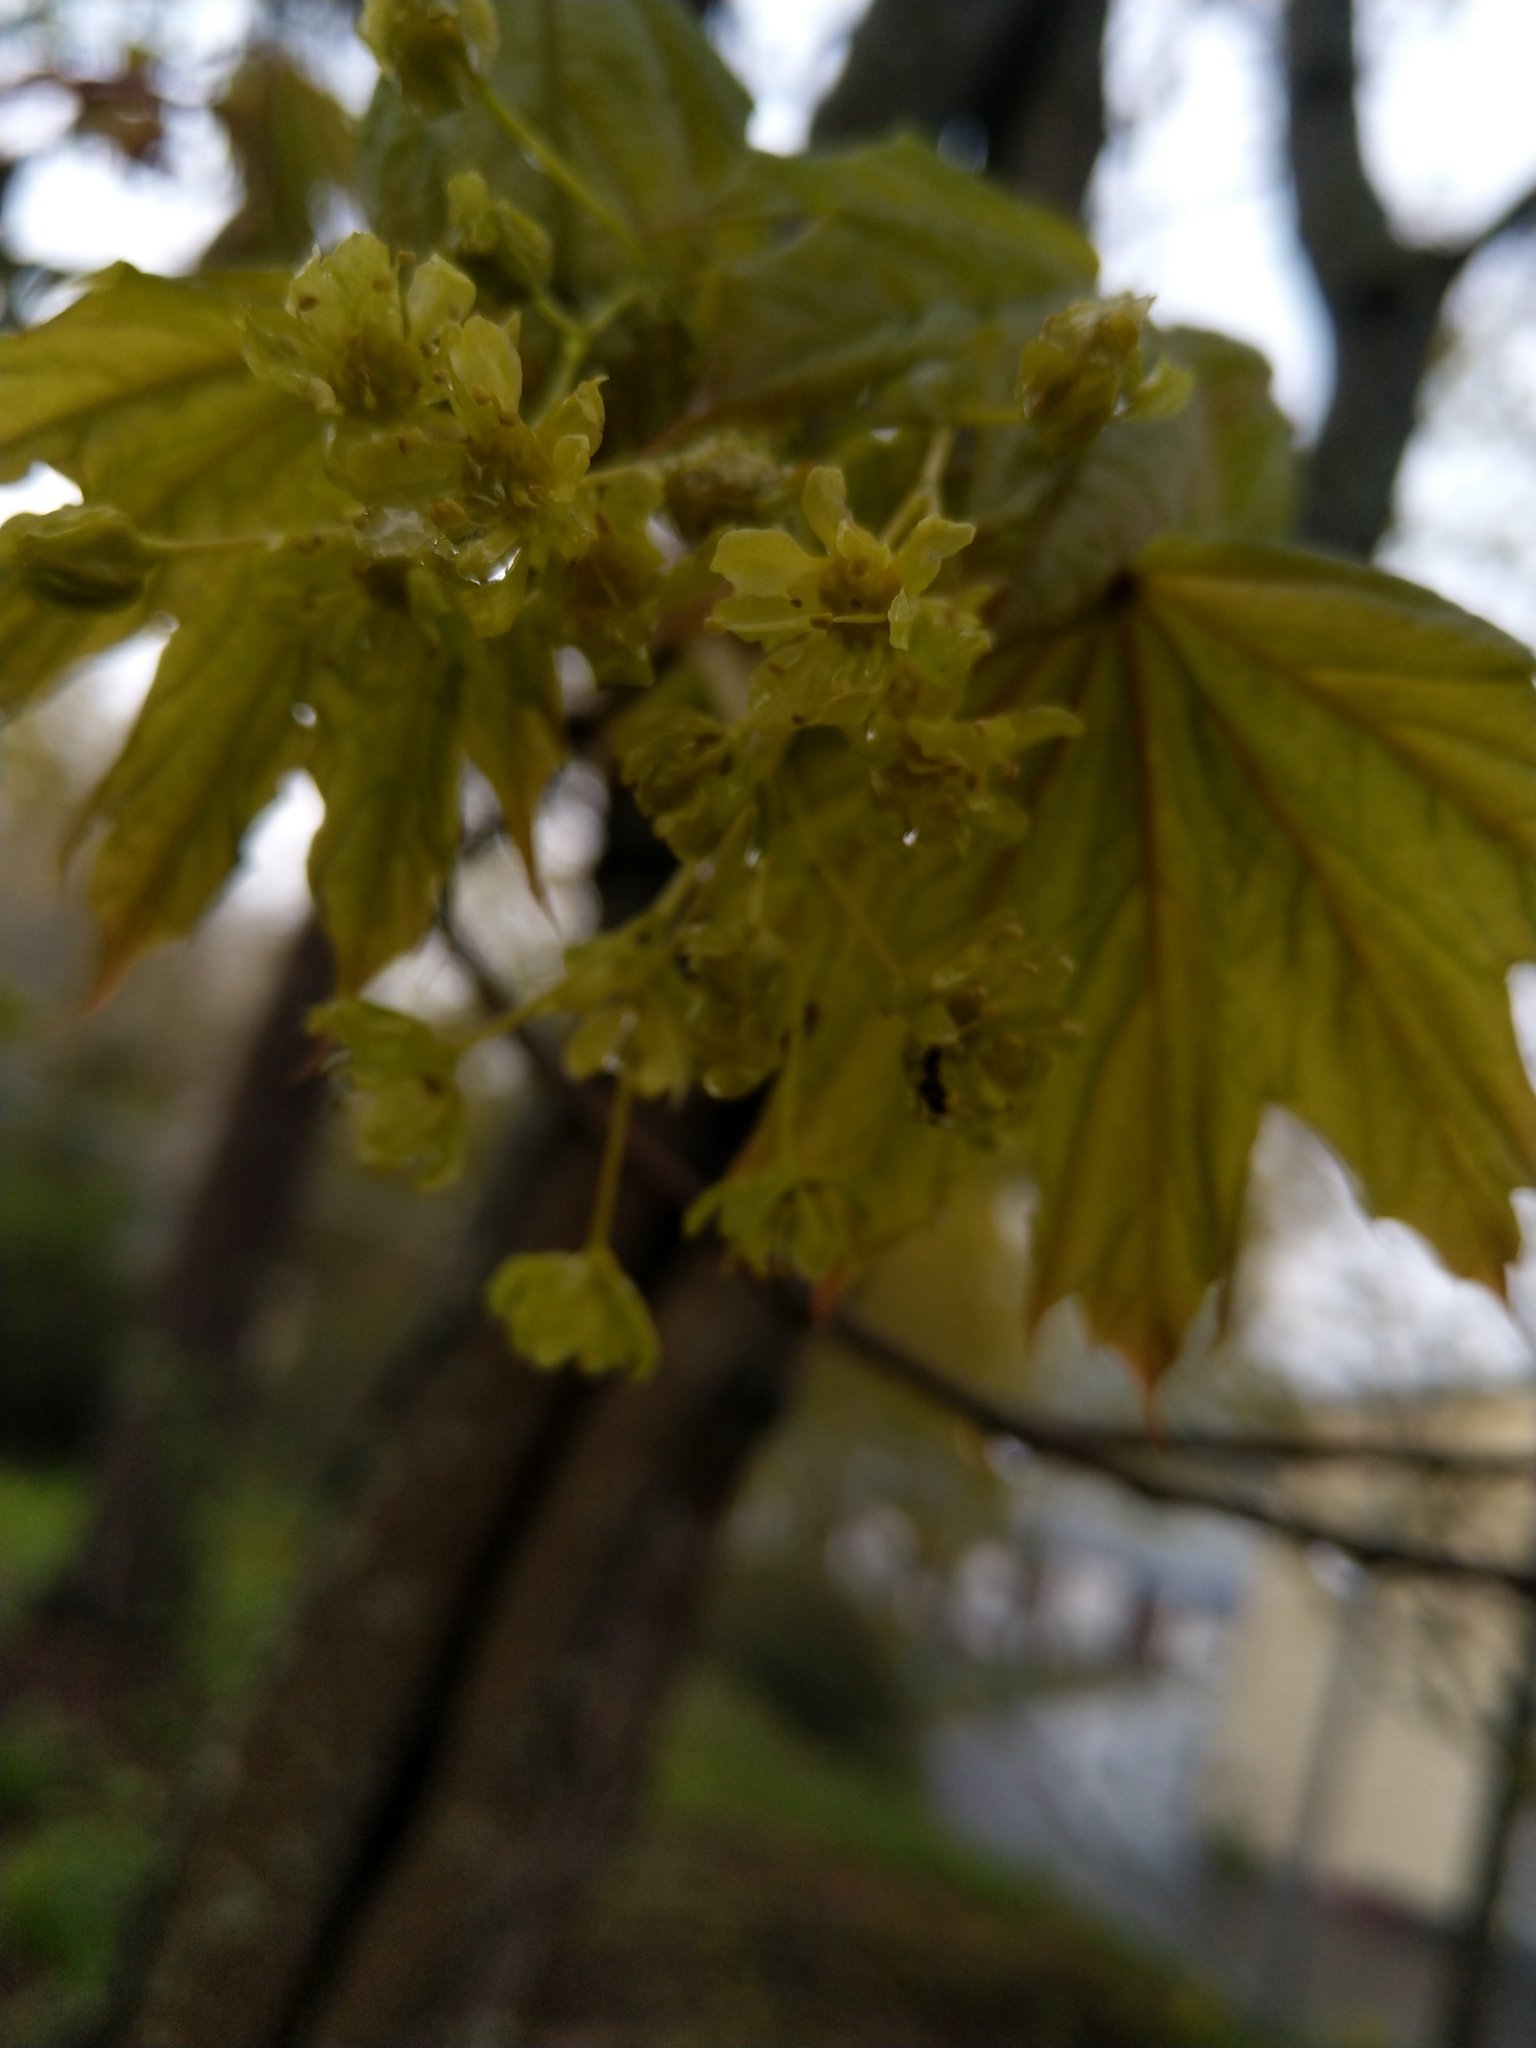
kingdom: Plantae
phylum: Tracheophyta
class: Magnoliopsida
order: Sapindales
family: Sapindaceae
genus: Acer
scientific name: Acer platanoides
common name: Norway maple
